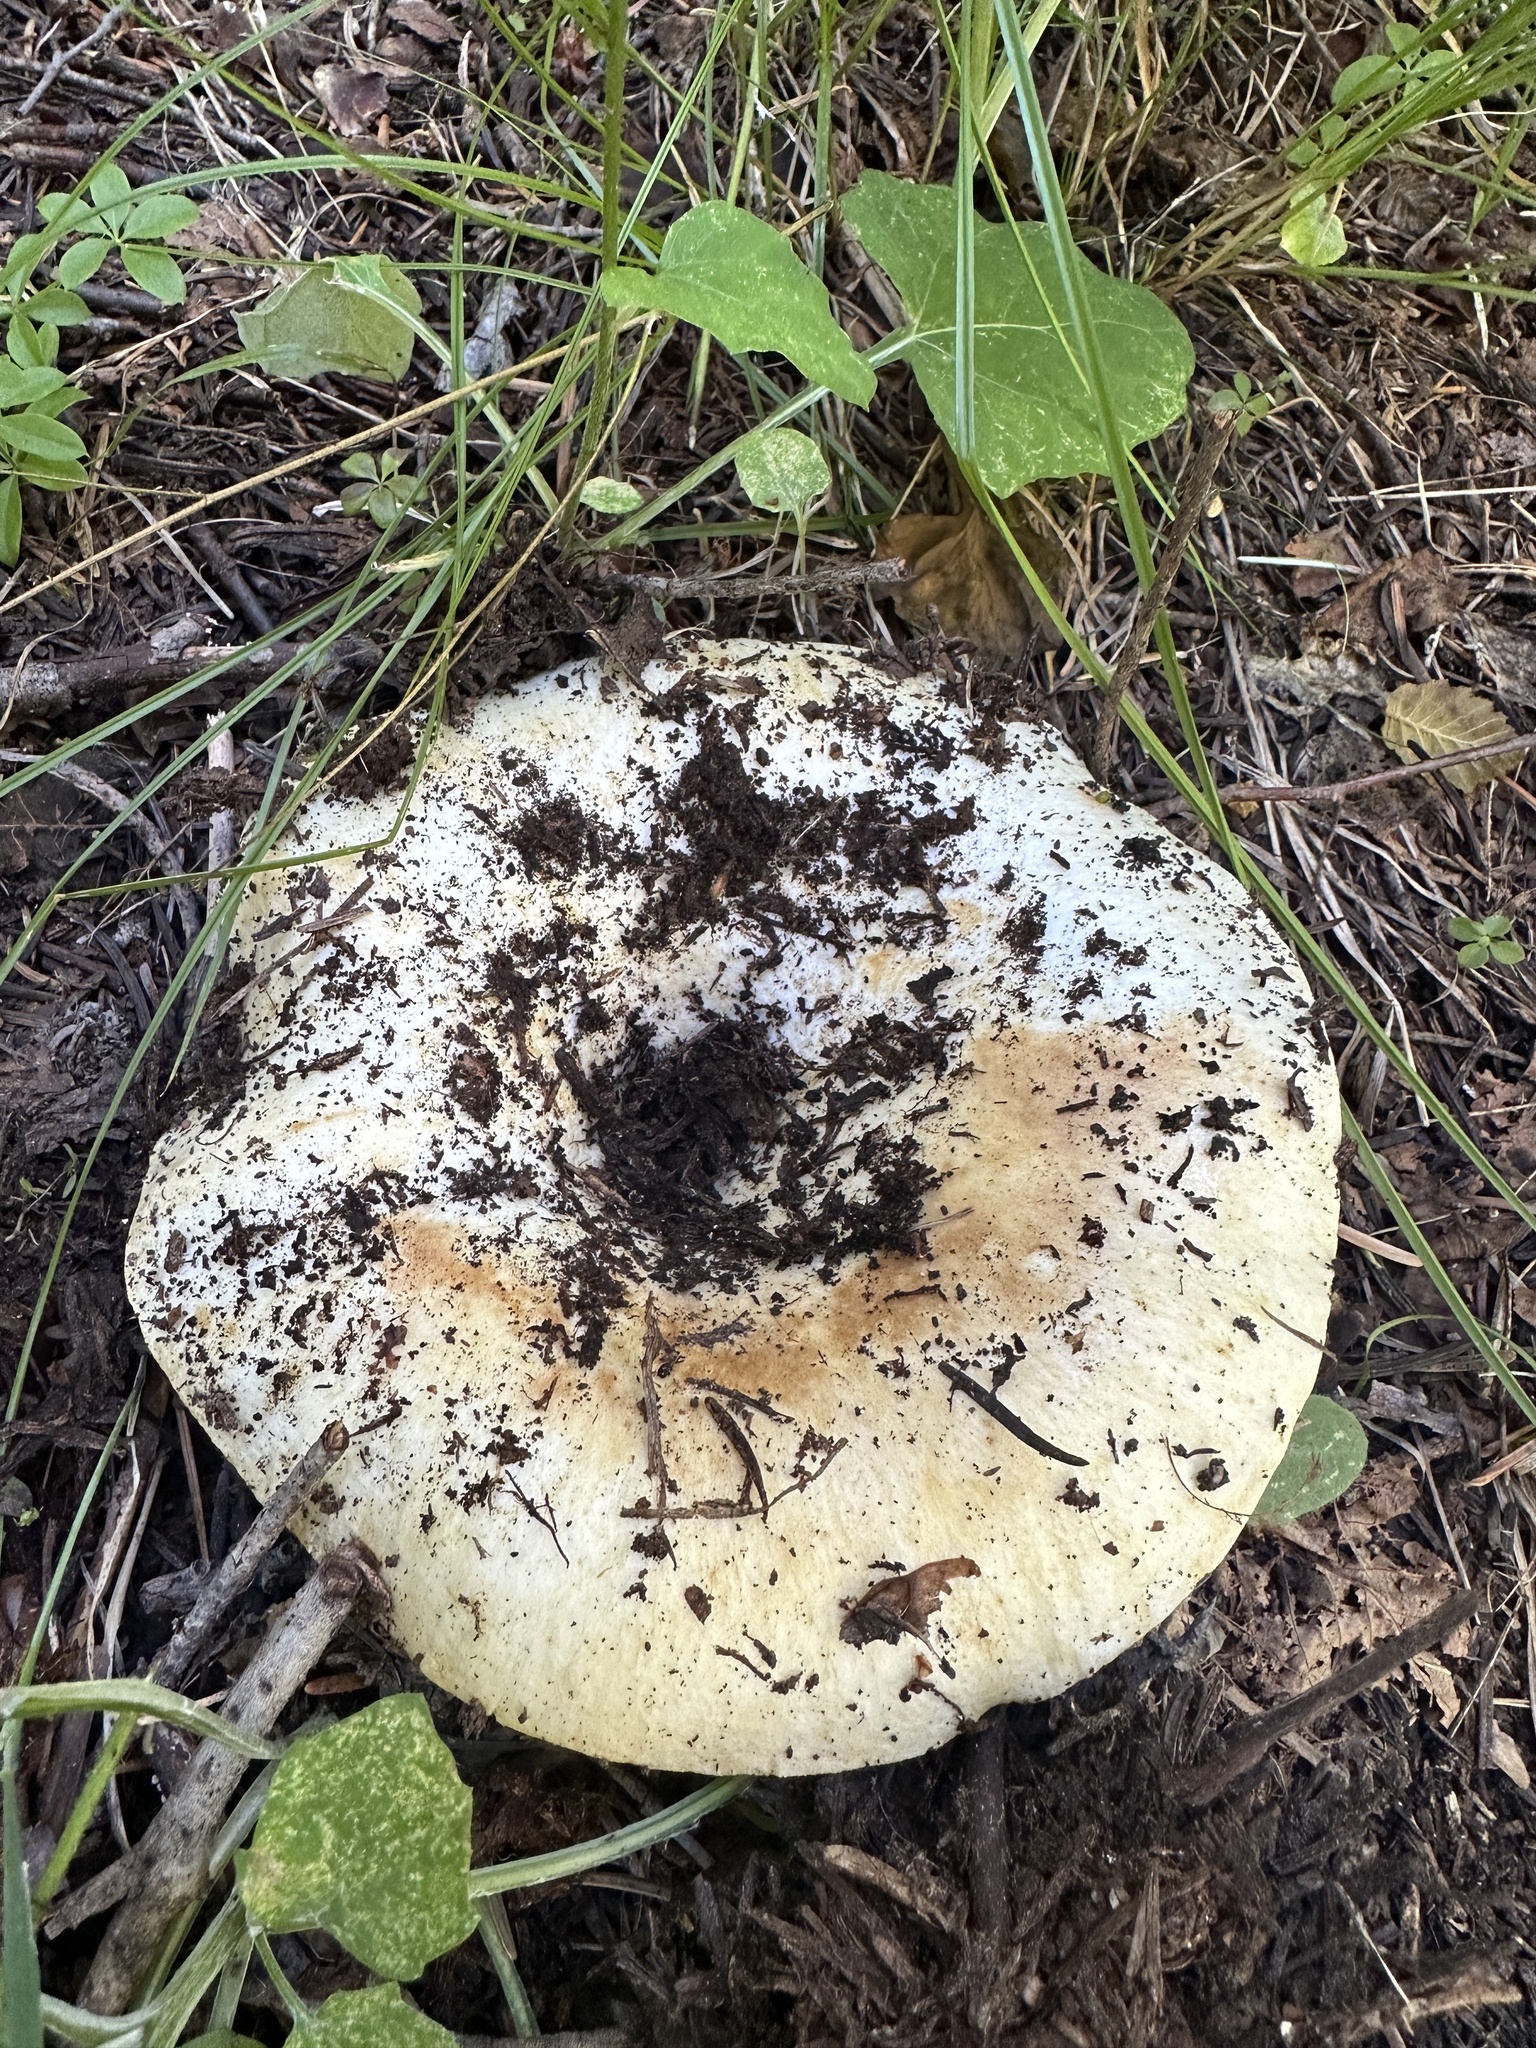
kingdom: Fungi
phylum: Basidiomycota
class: Agaricomycetes
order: Russulales
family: Russulaceae
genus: Russula
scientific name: Russula brevipes
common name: Short-stemmed russula
